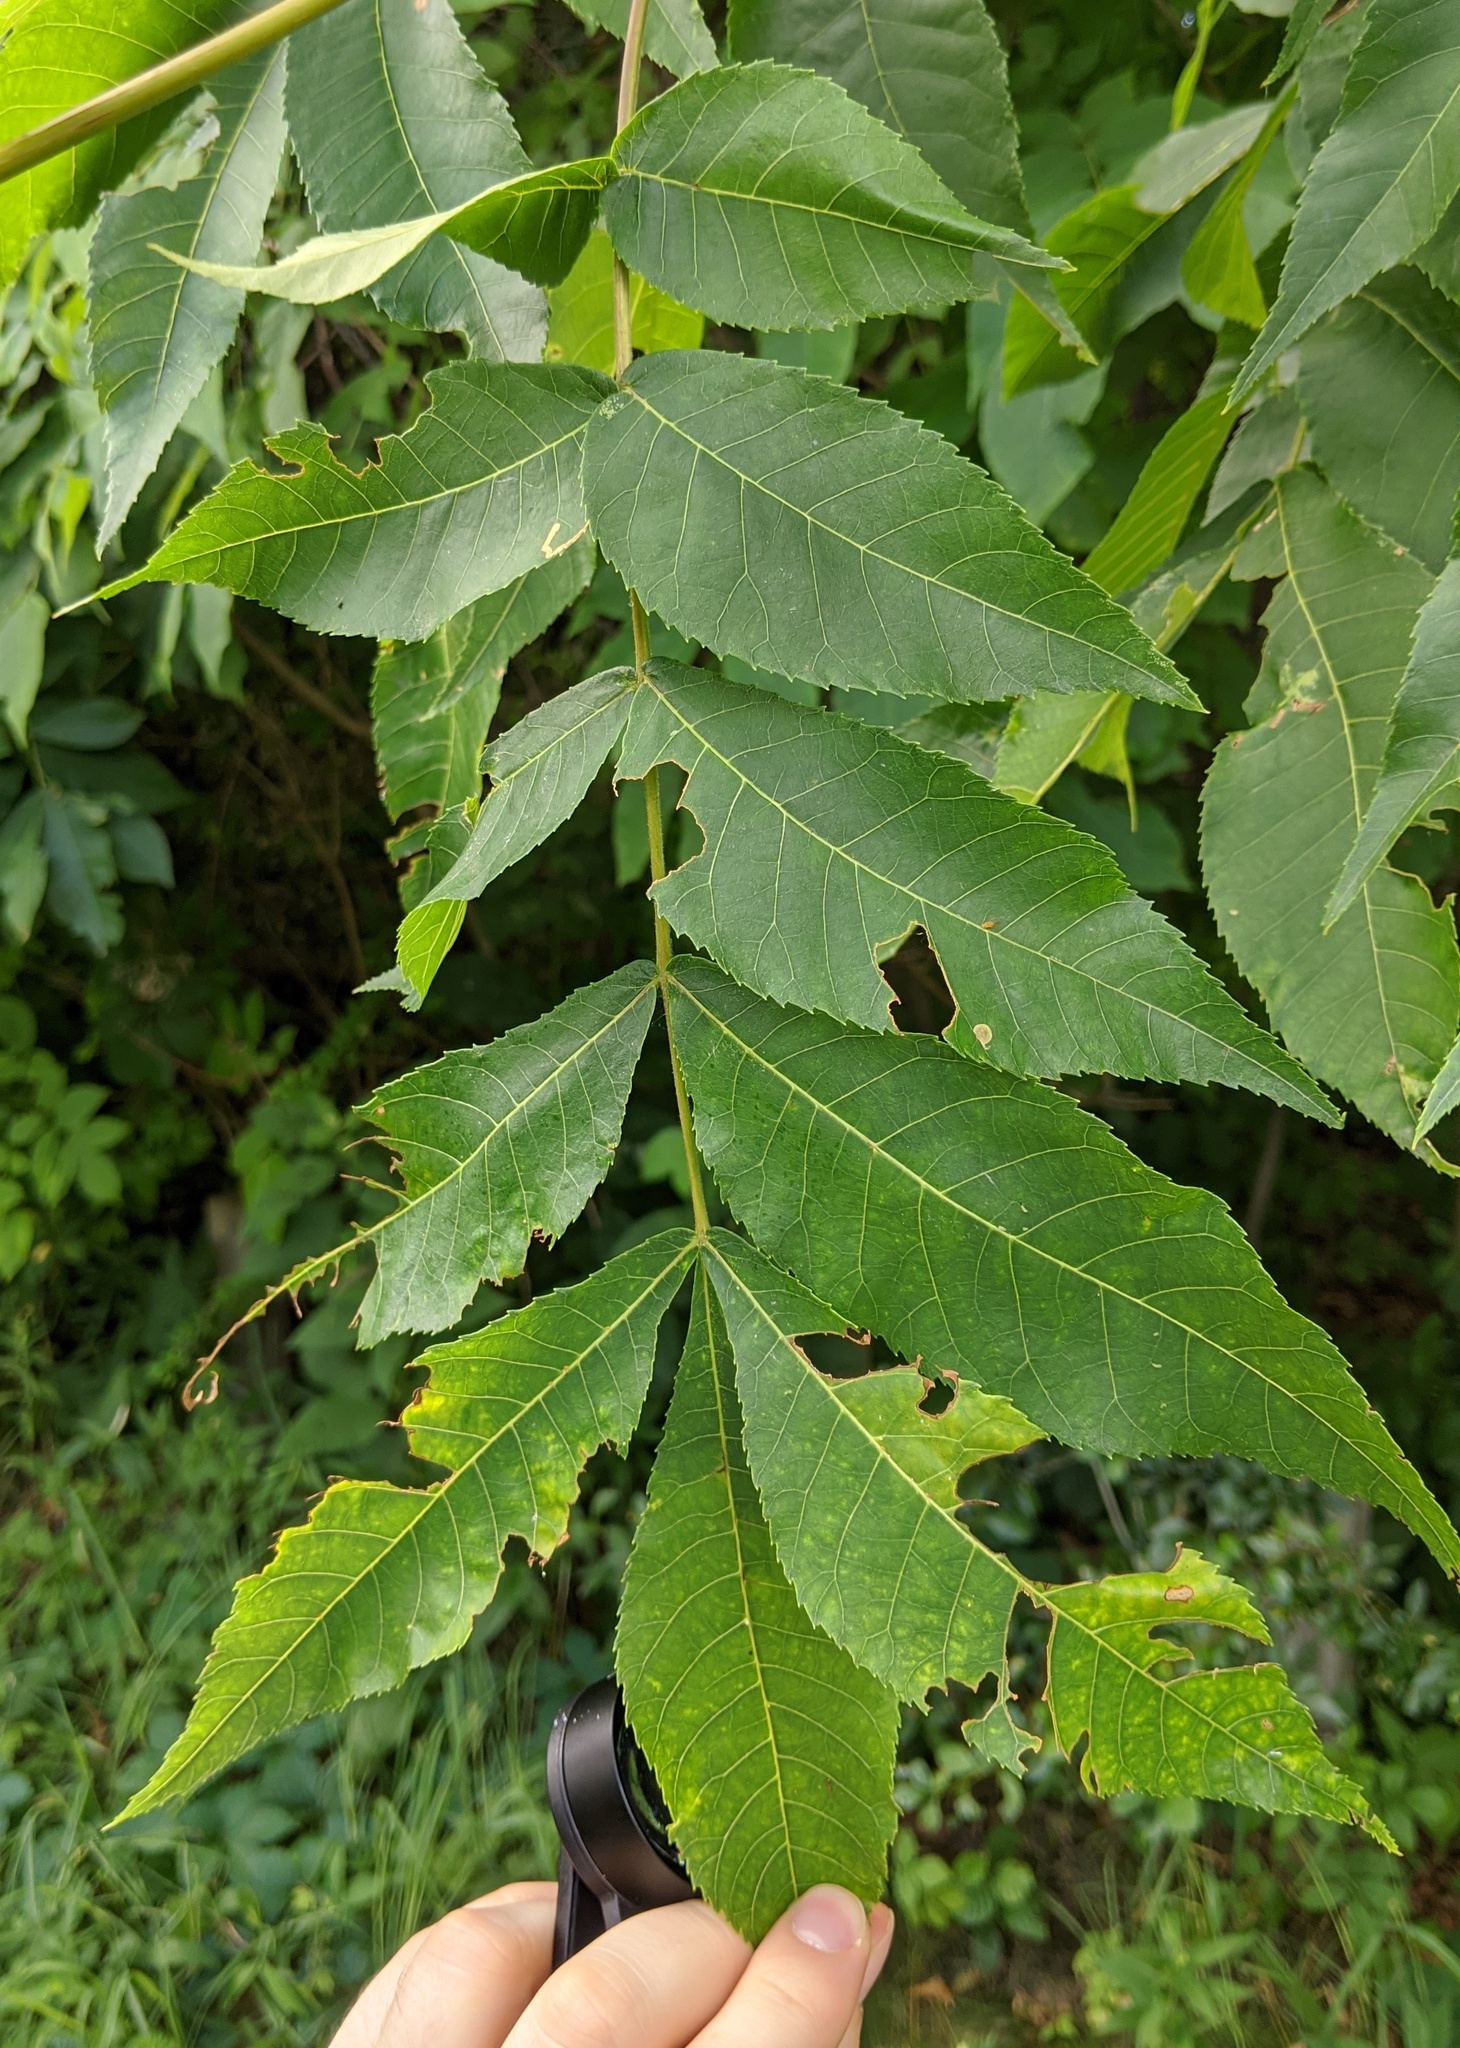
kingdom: Plantae
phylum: Tracheophyta
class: Magnoliopsida
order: Fagales
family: Juglandaceae
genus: Carya
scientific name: Carya cordiformis
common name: Bitternut hickory
